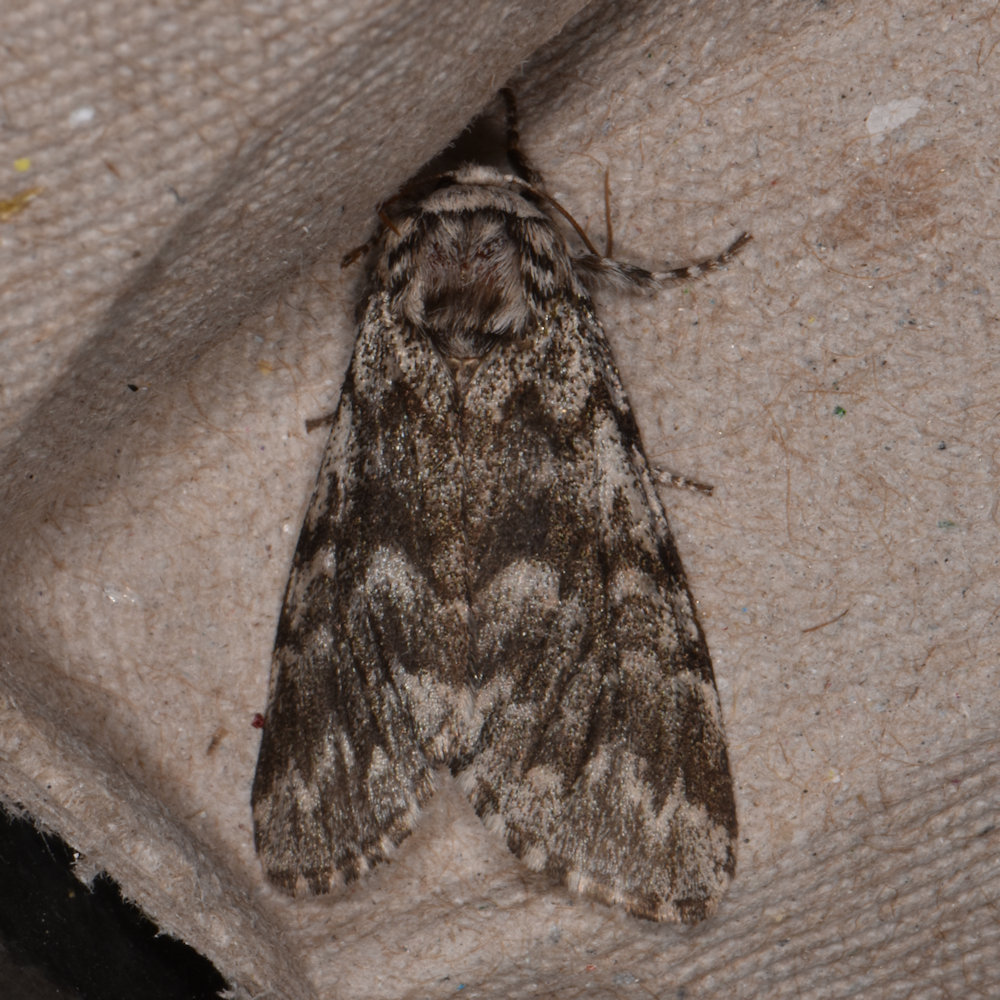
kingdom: Animalia
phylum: Arthropoda
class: Insecta
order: Lepidoptera
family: Noctuidae
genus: Panthea
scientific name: Panthea acronyctoides
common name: Black zigzag moth
